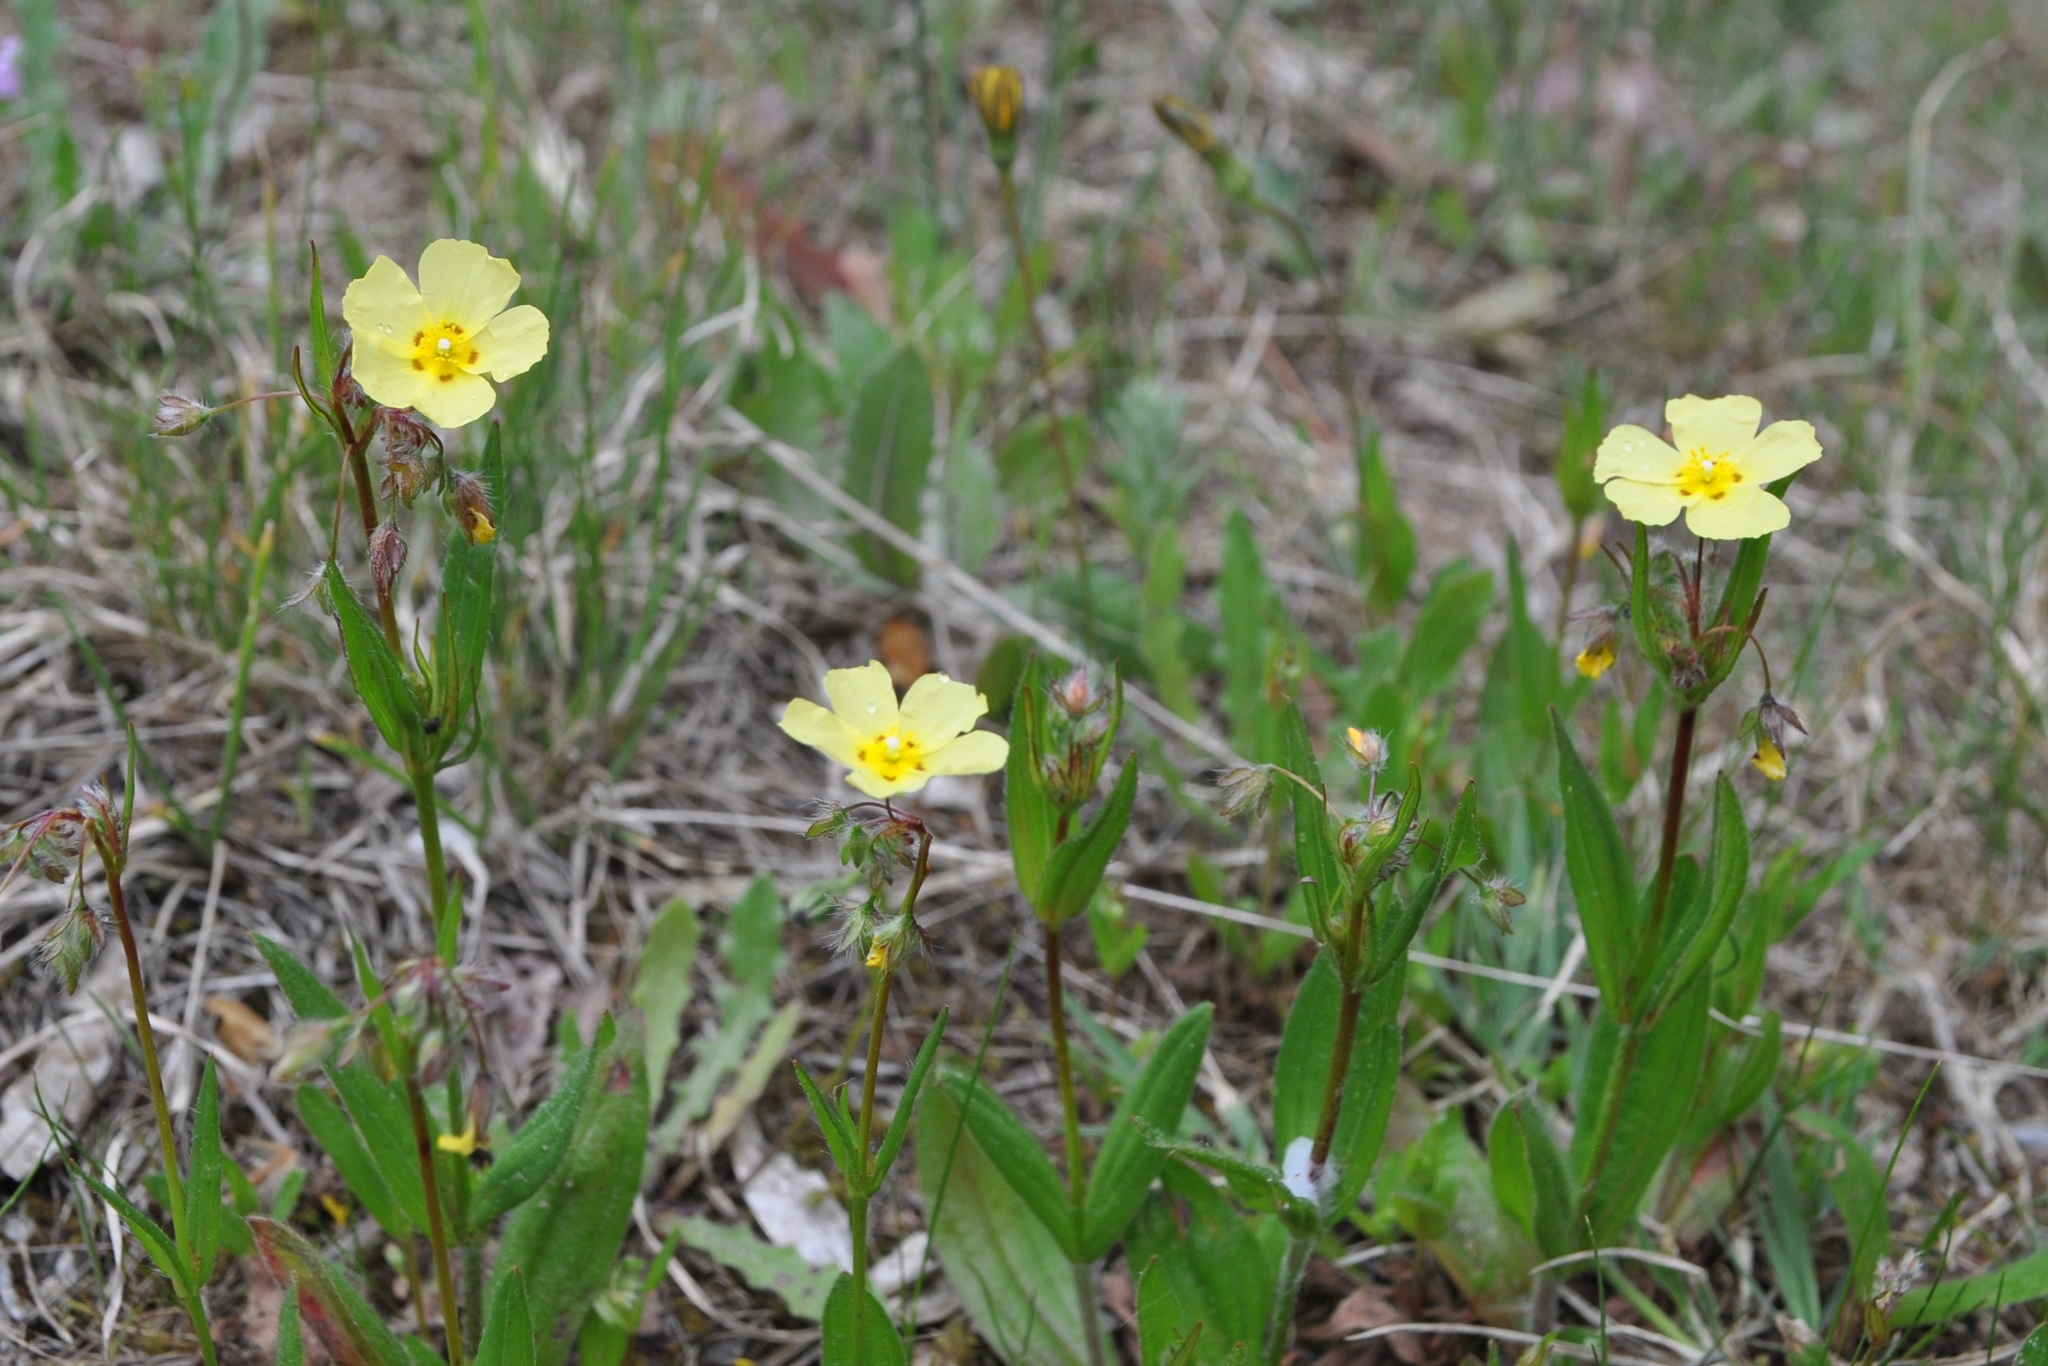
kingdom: Plantae
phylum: Tracheophyta
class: Magnoliopsida
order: Malvales
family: Cistaceae
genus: Tuberaria
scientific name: Tuberaria guttata
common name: Spotted rock-rose
